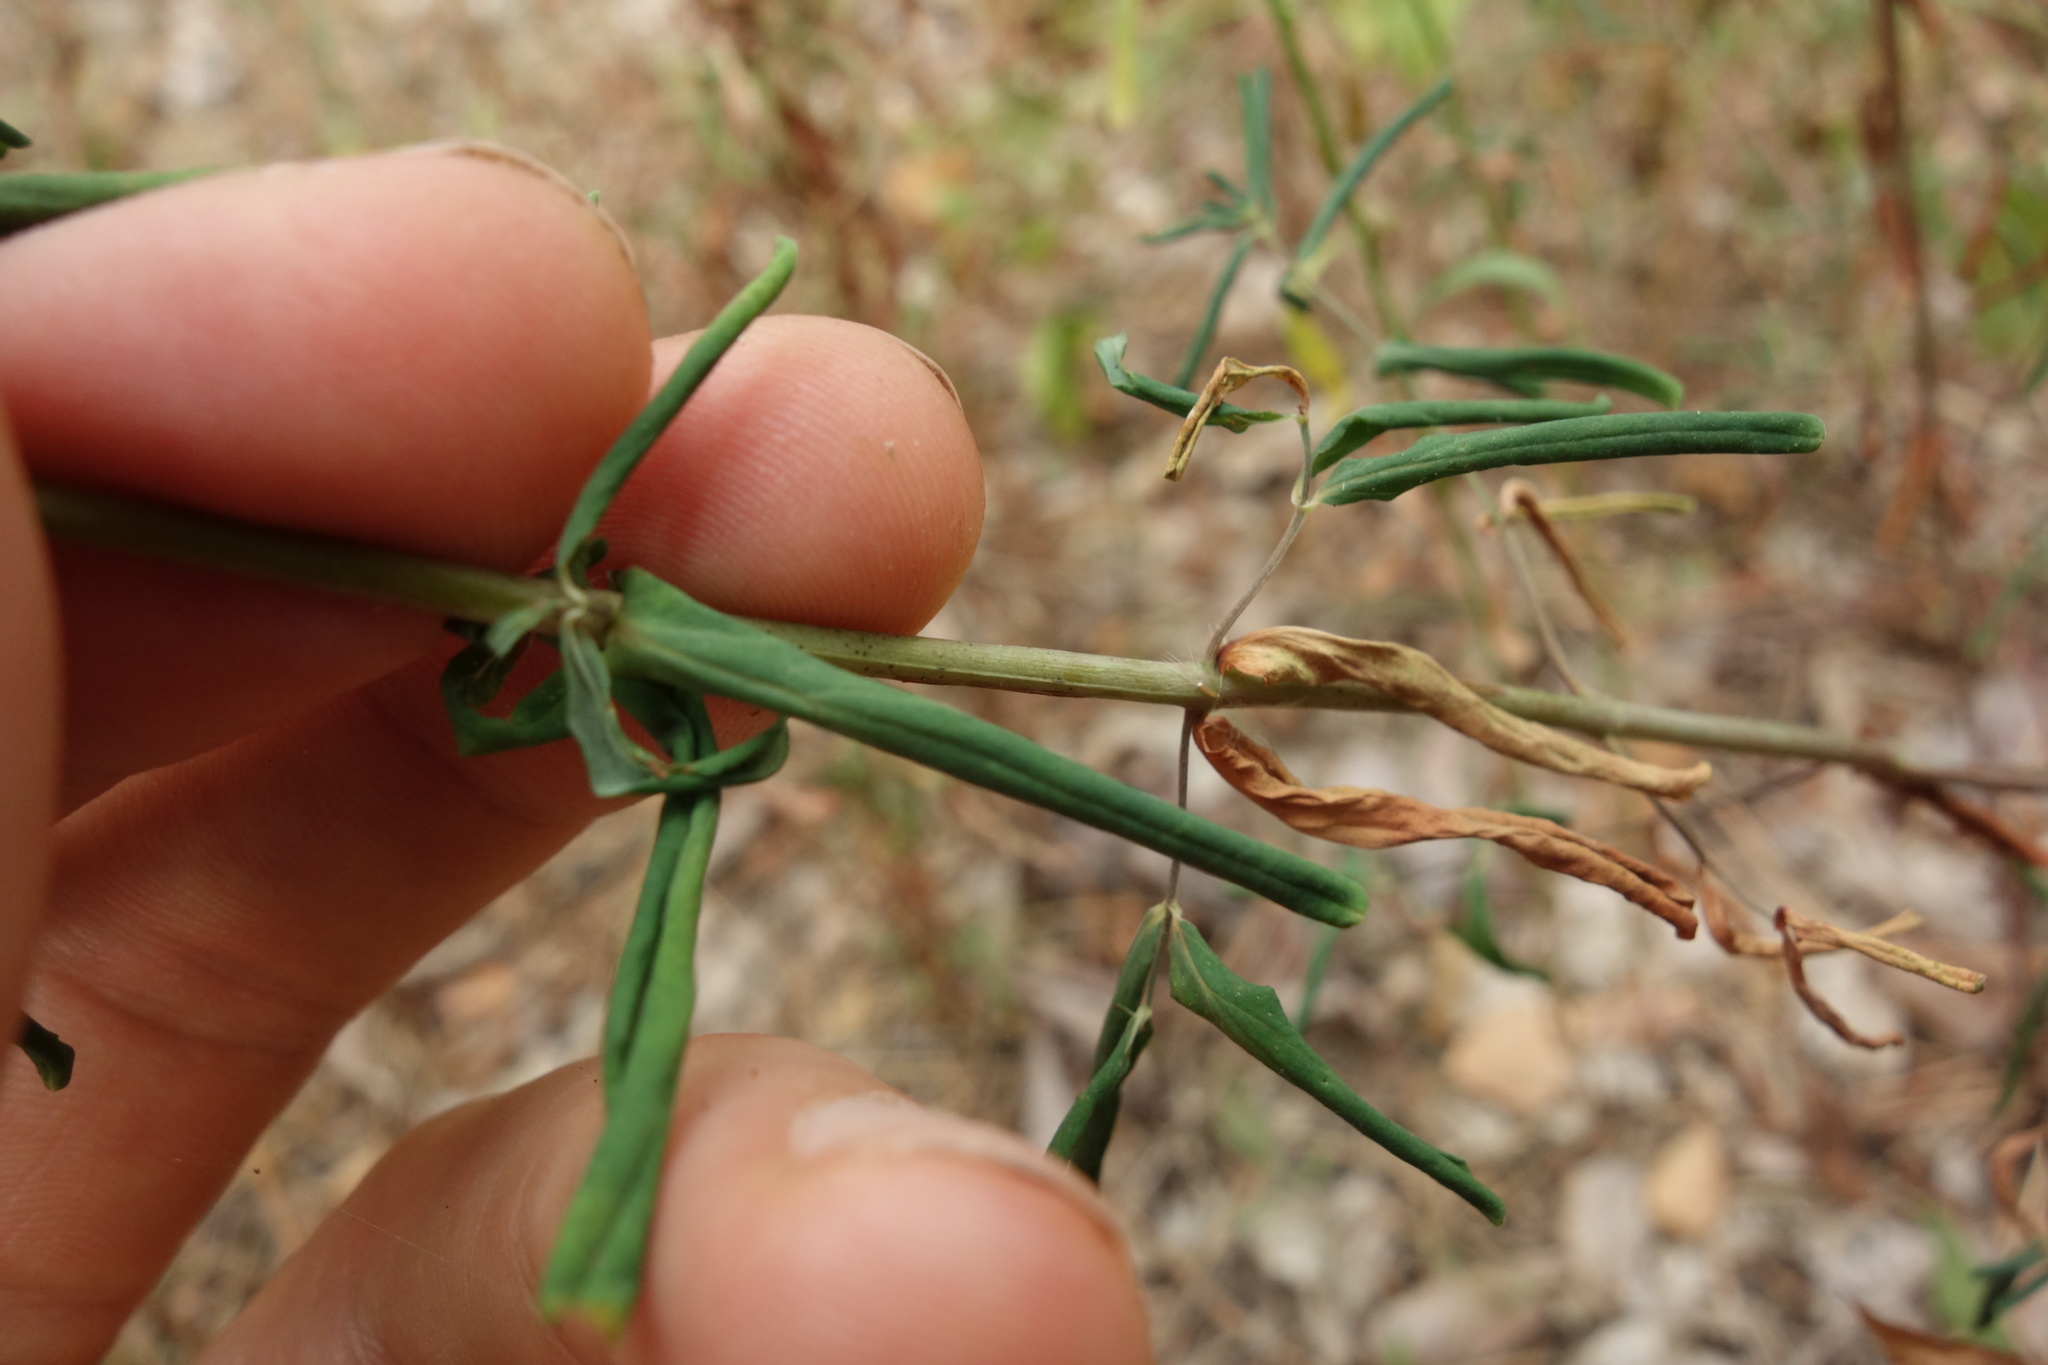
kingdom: Plantae
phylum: Tracheophyta
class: Magnoliopsida
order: Malpighiales
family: Hypericaceae
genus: Hypericum
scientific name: Hypericum perforatum
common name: Common st. johnswort
